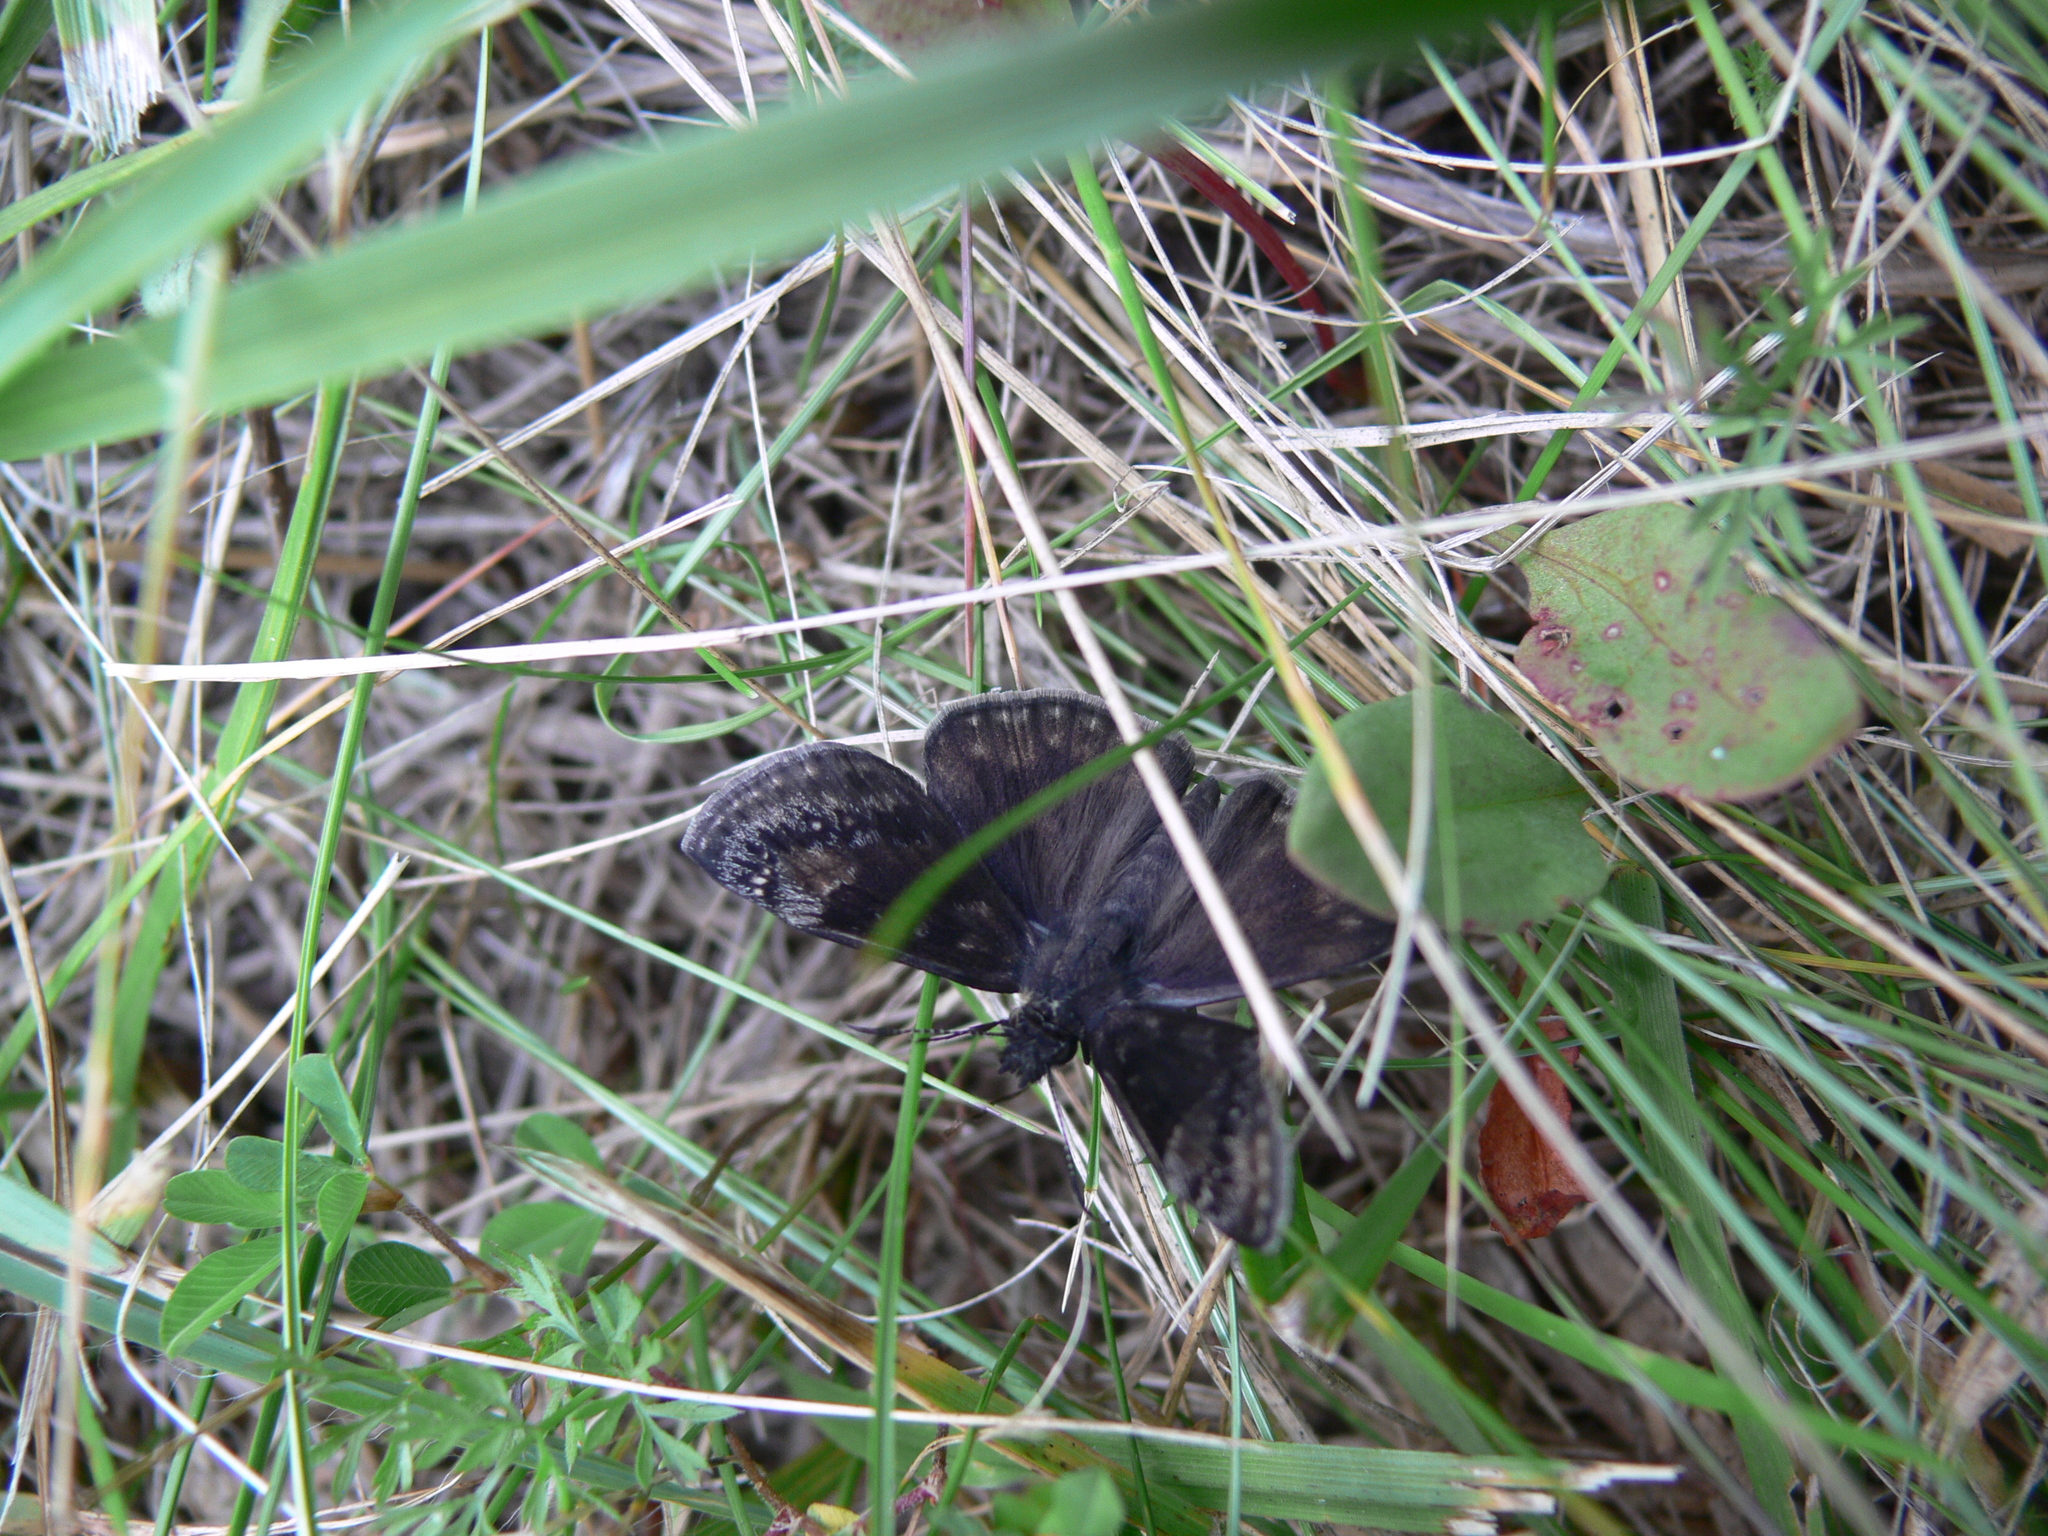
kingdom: Animalia
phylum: Arthropoda
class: Insecta
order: Lepidoptera
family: Hesperiidae
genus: Erynnis
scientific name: Erynnis baptisiae
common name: Wild indigo duskywing
